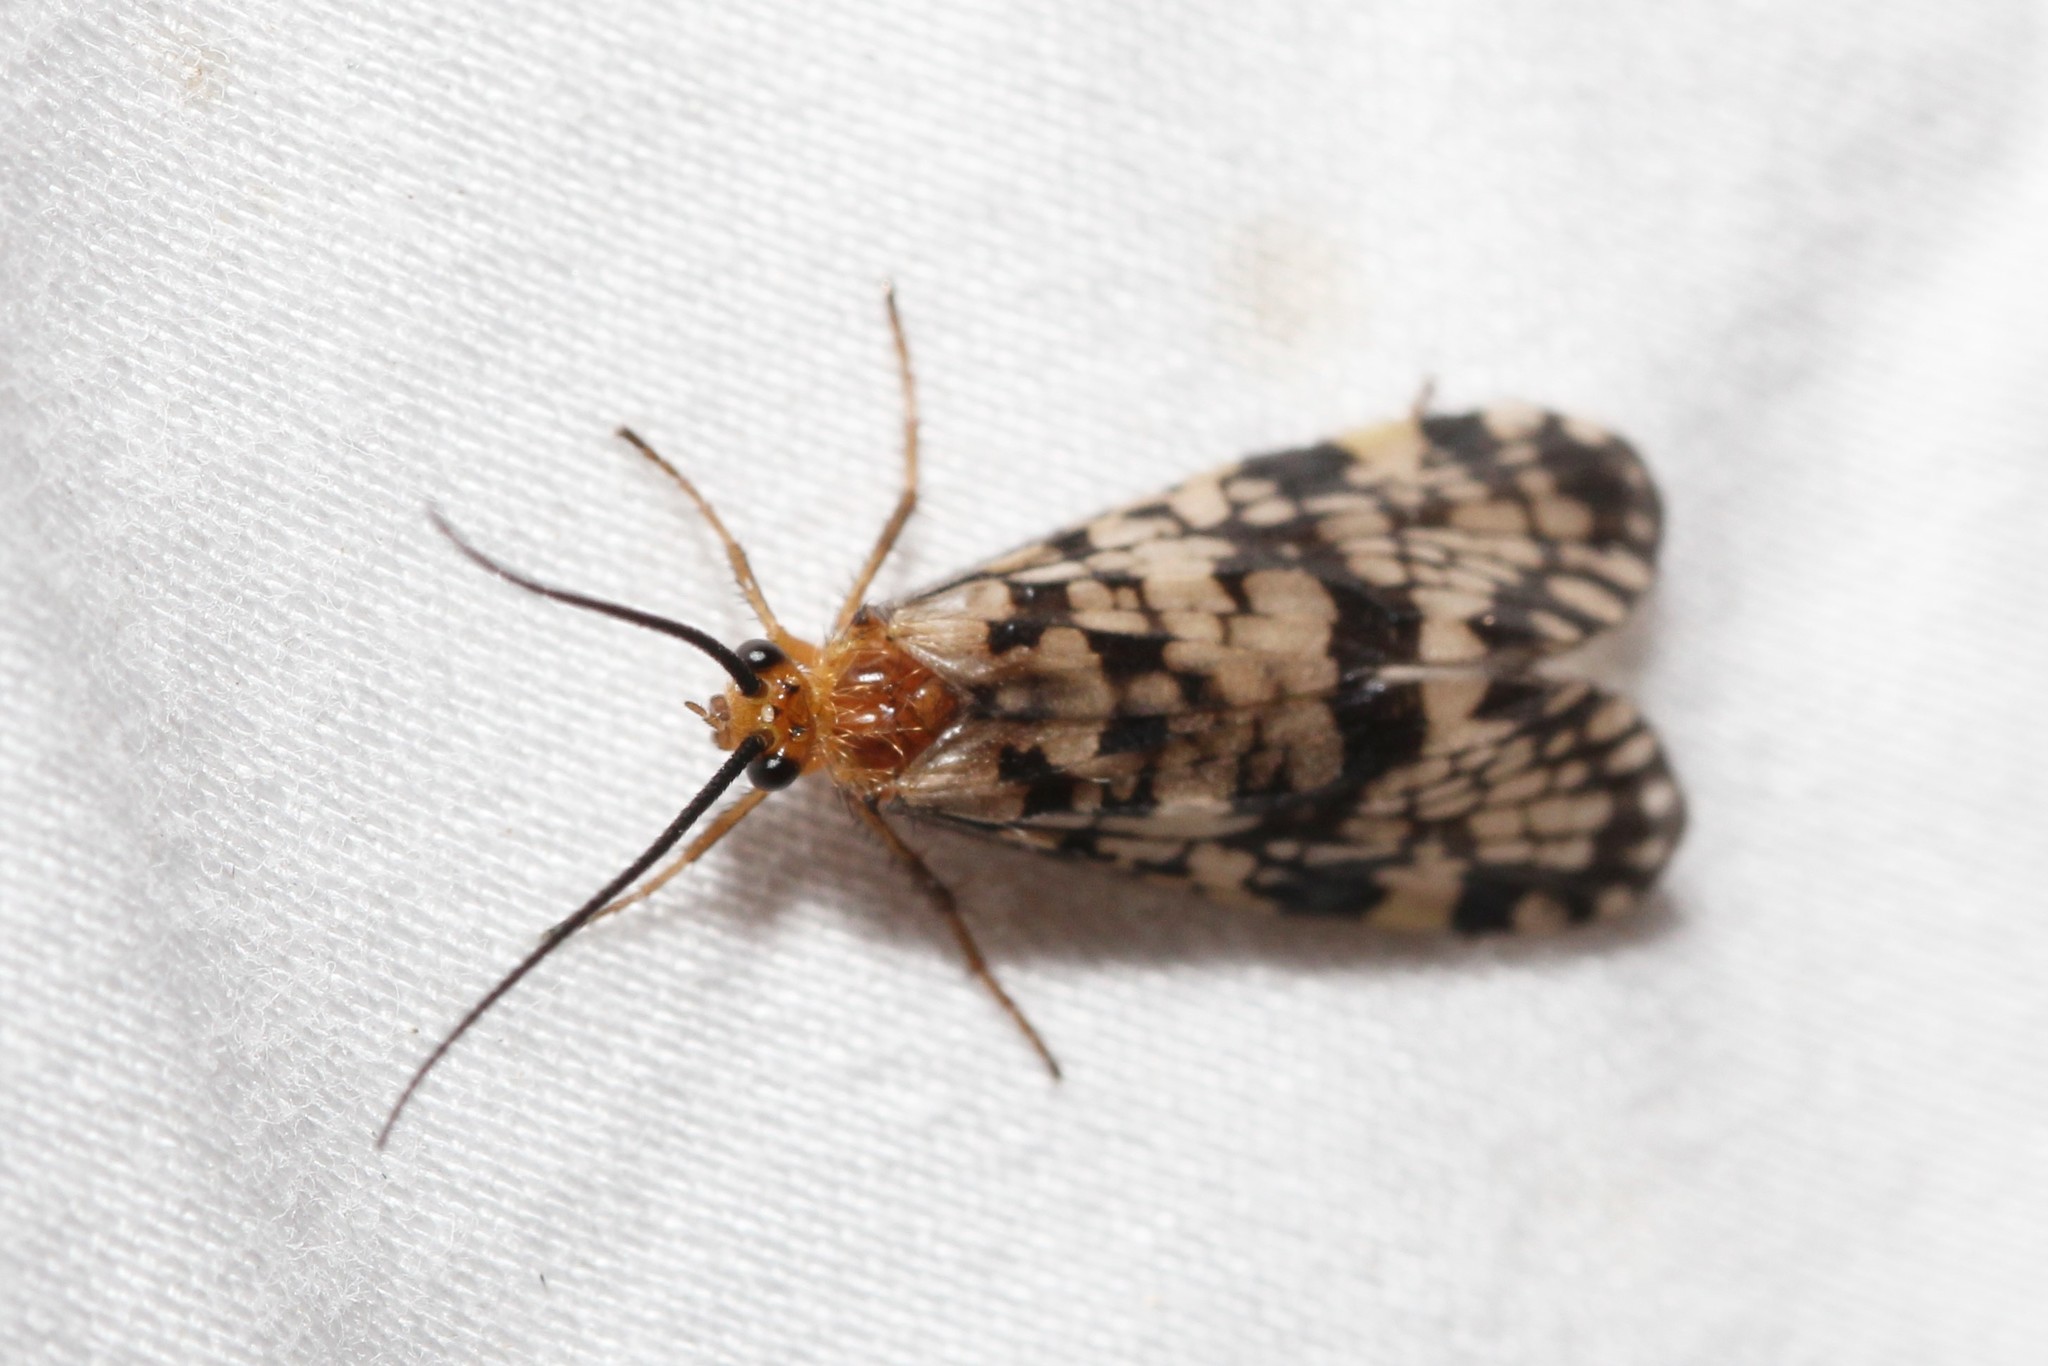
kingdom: Animalia
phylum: Arthropoda
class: Insecta
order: Trichoptera
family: Phryganeidae
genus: Banksiola
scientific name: Banksiola dossuaria
